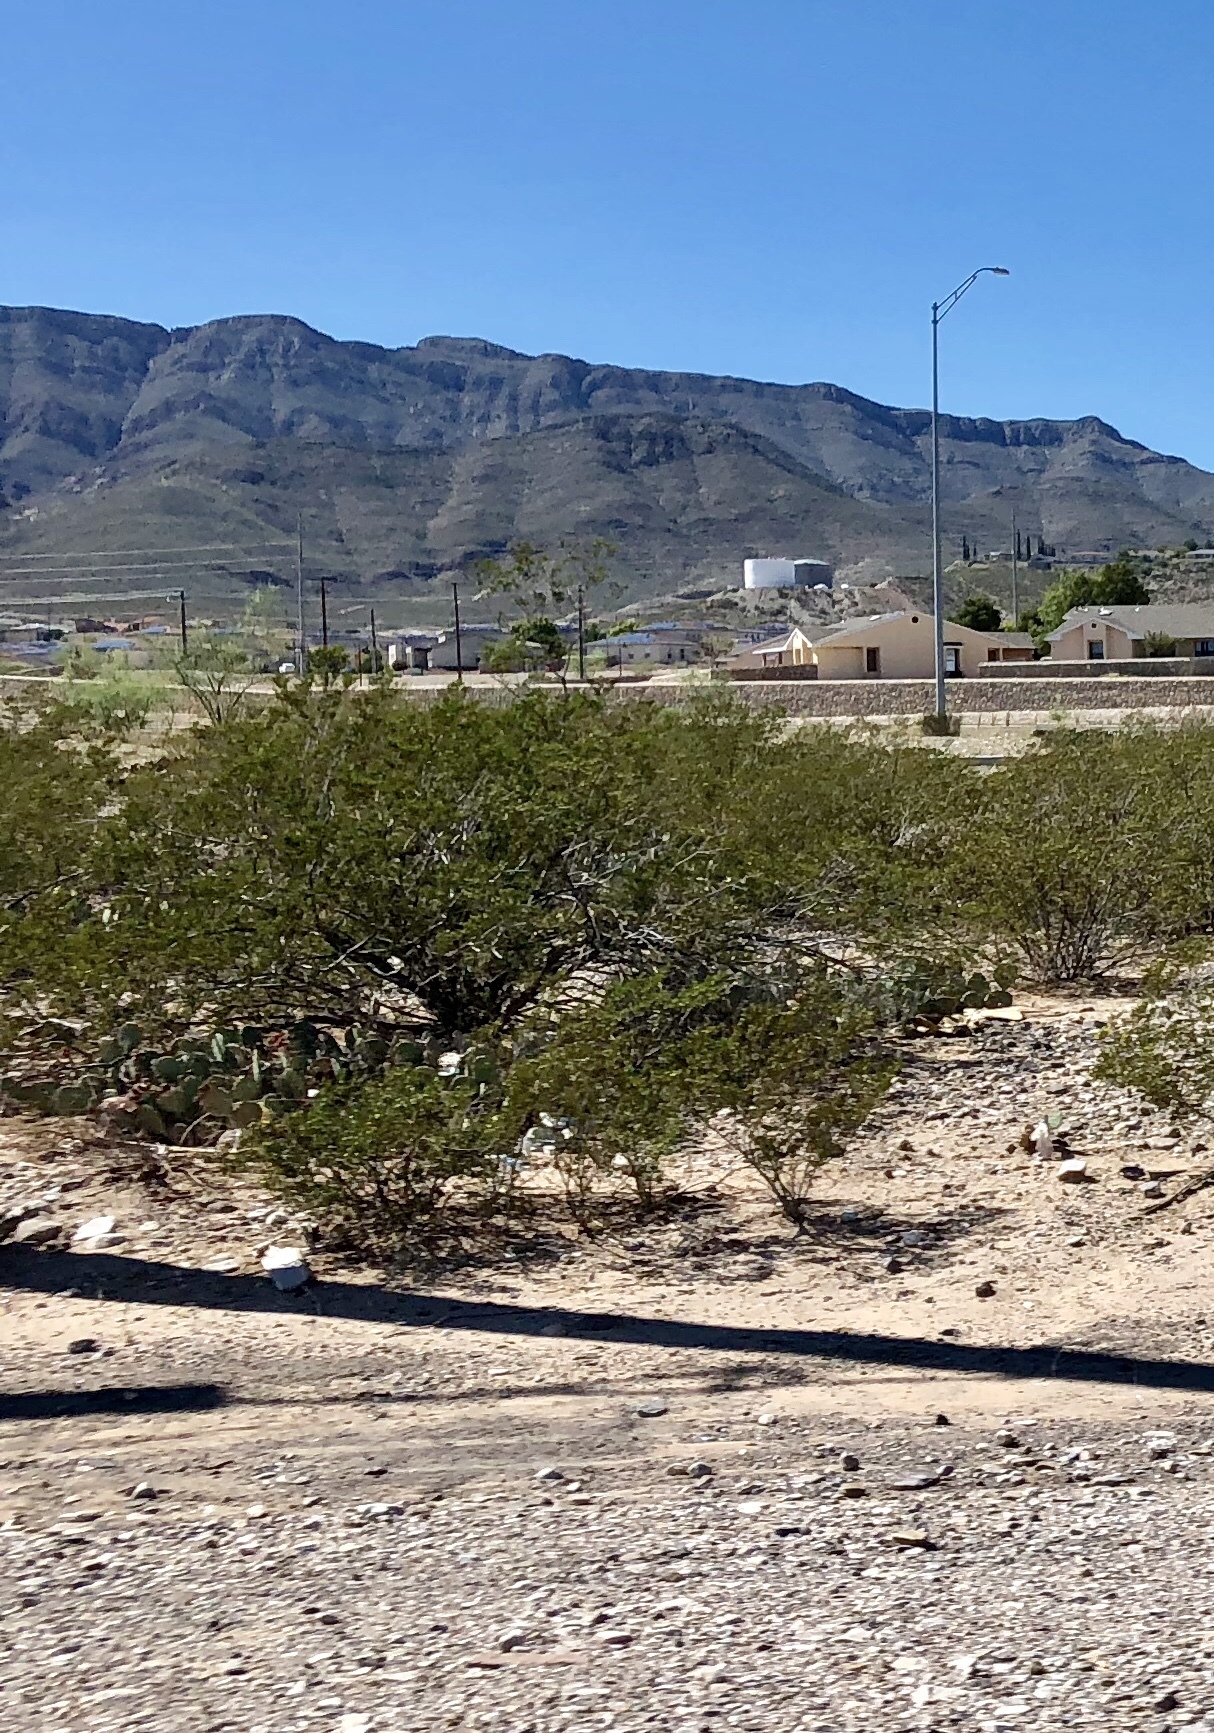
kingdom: Plantae
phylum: Tracheophyta
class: Magnoliopsida
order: Zygophyllales
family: Zygophyllaceae
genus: Larrea
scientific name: Larrea tridentata
